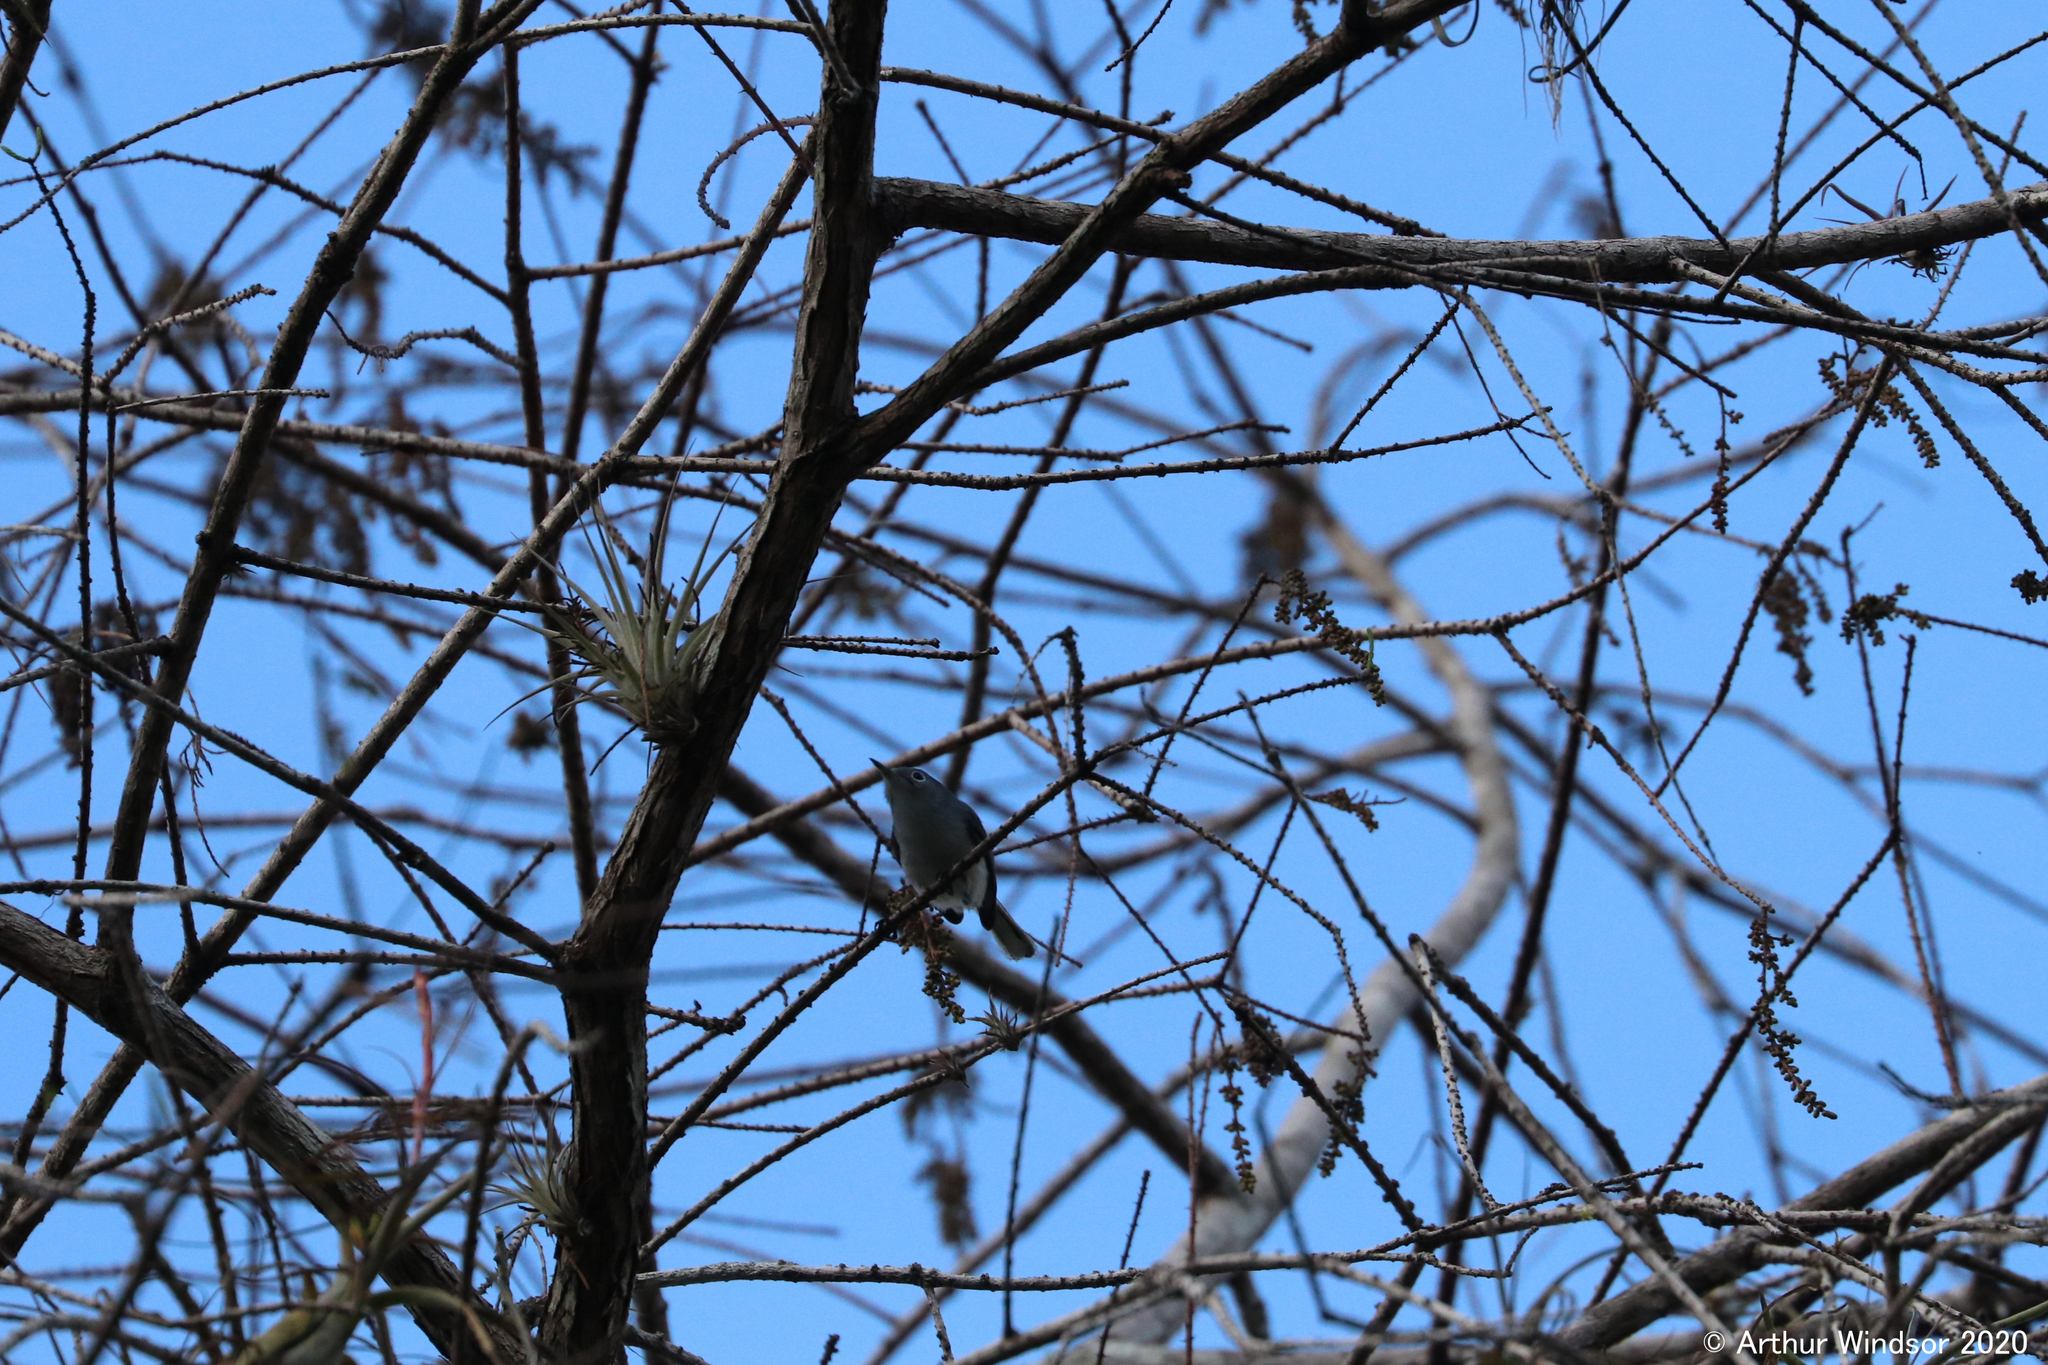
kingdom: Animalia
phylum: Chordata
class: Aves
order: Passeriformes
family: Polioptilidae
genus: Polioptila
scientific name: Polioptila caerulea
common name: Blue-gray gnatcatcher
